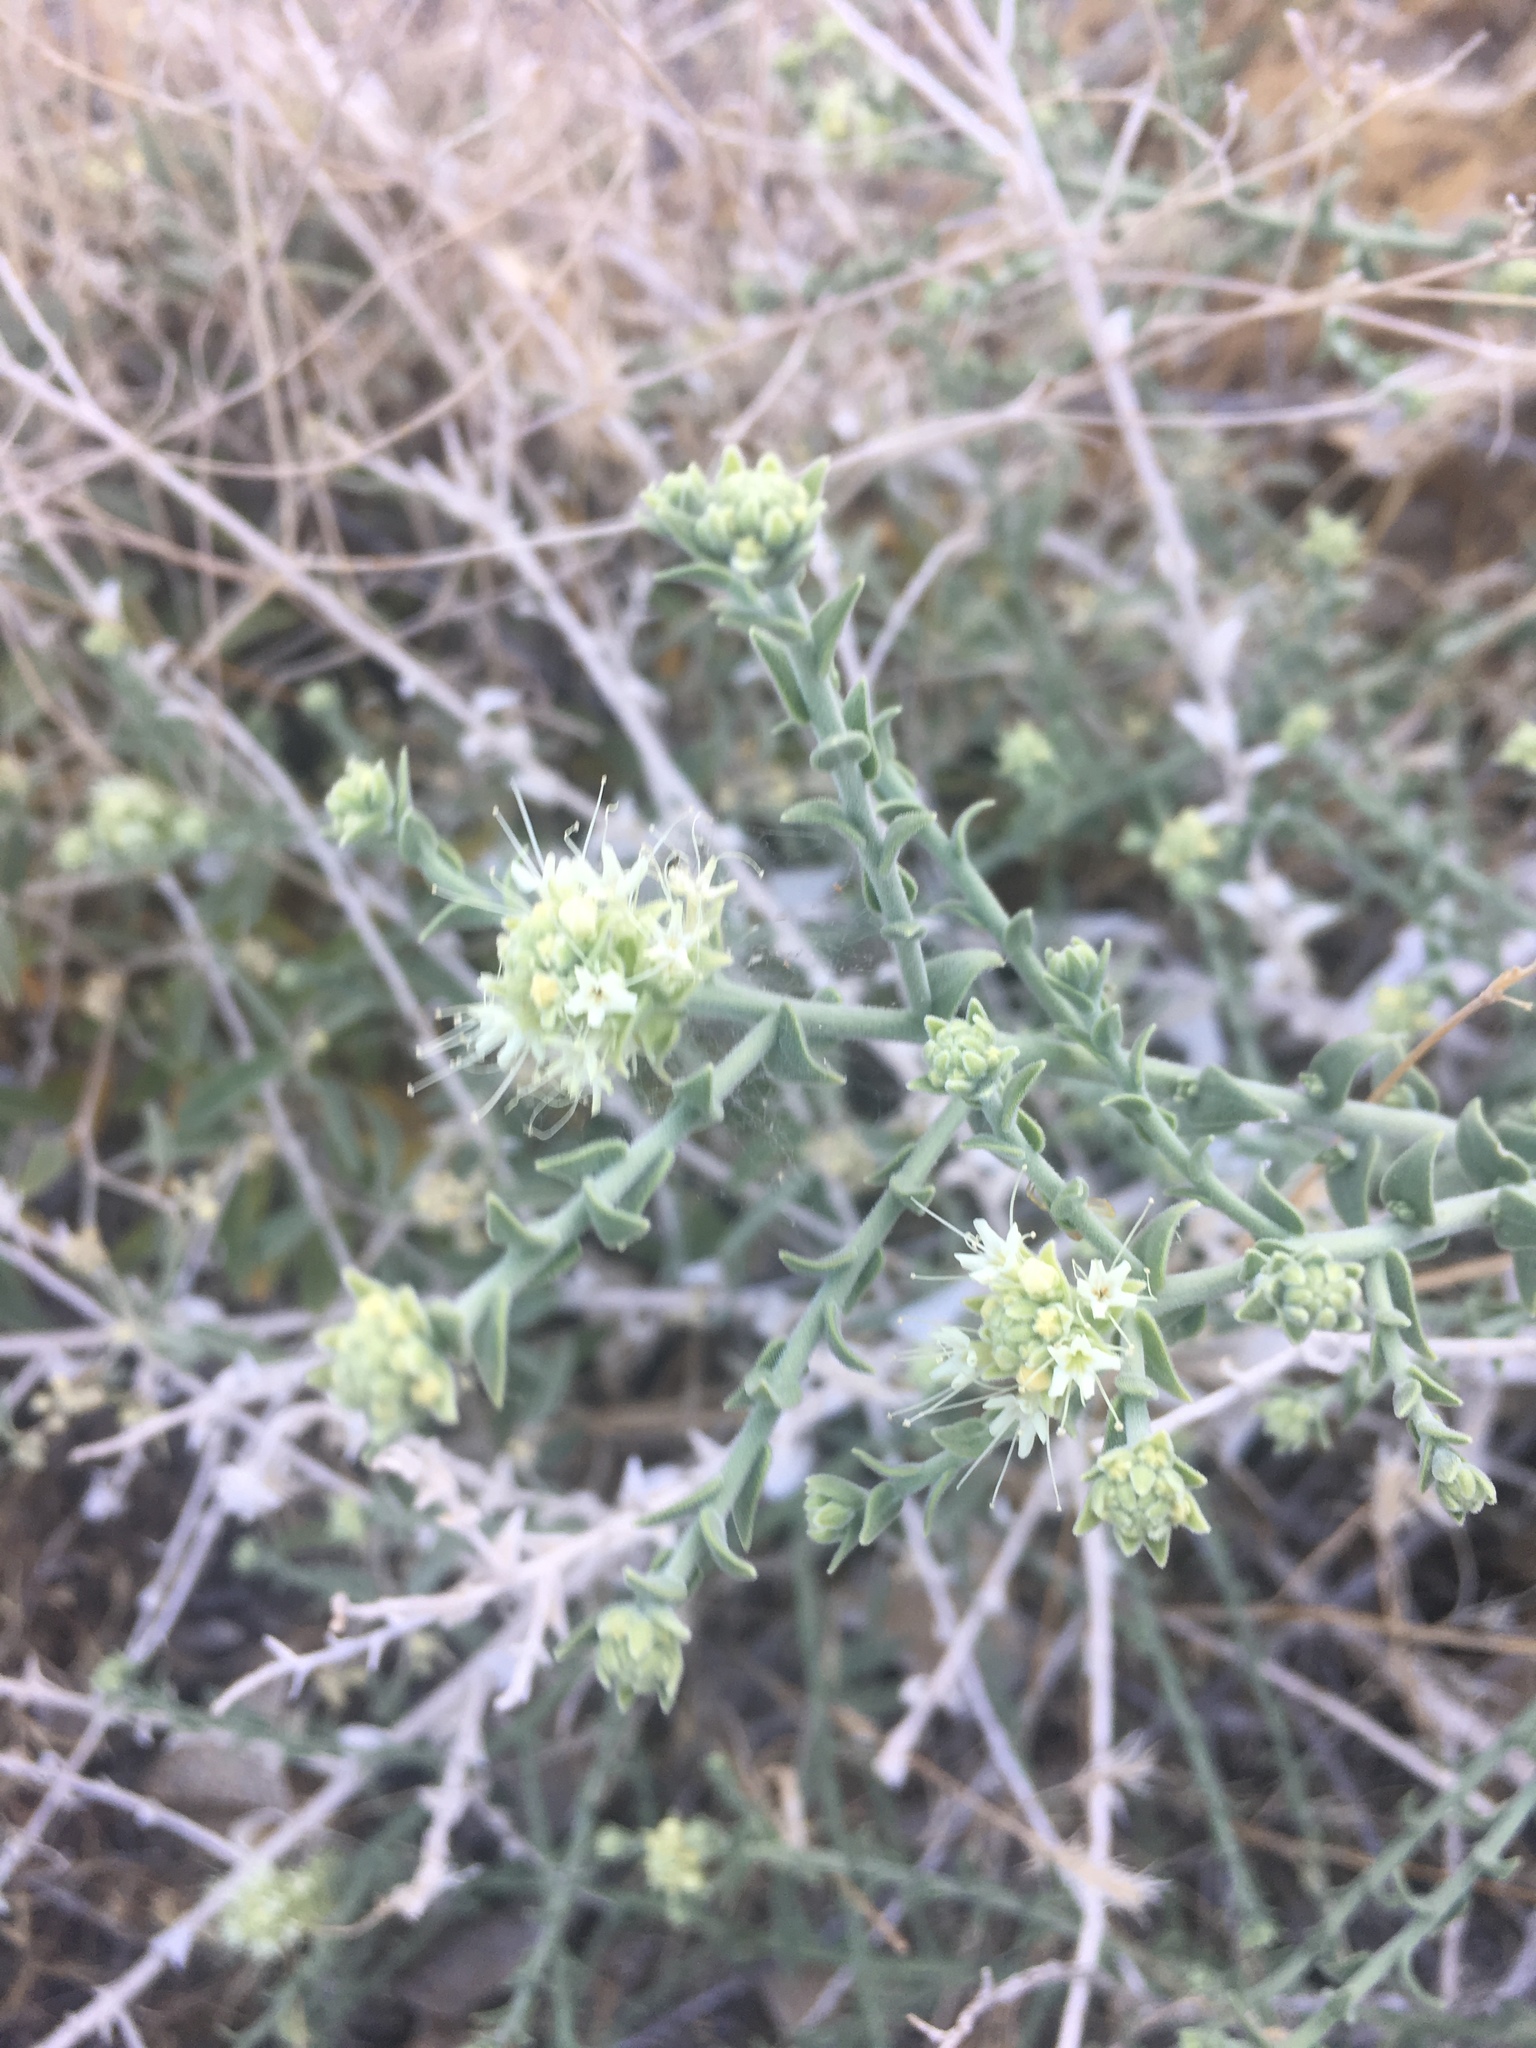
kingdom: Plantae
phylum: Tracheophyta
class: Magnoliopsida
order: Cornales
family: Loasaceae
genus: Petalonyx
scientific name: Petalonyx thurberi
